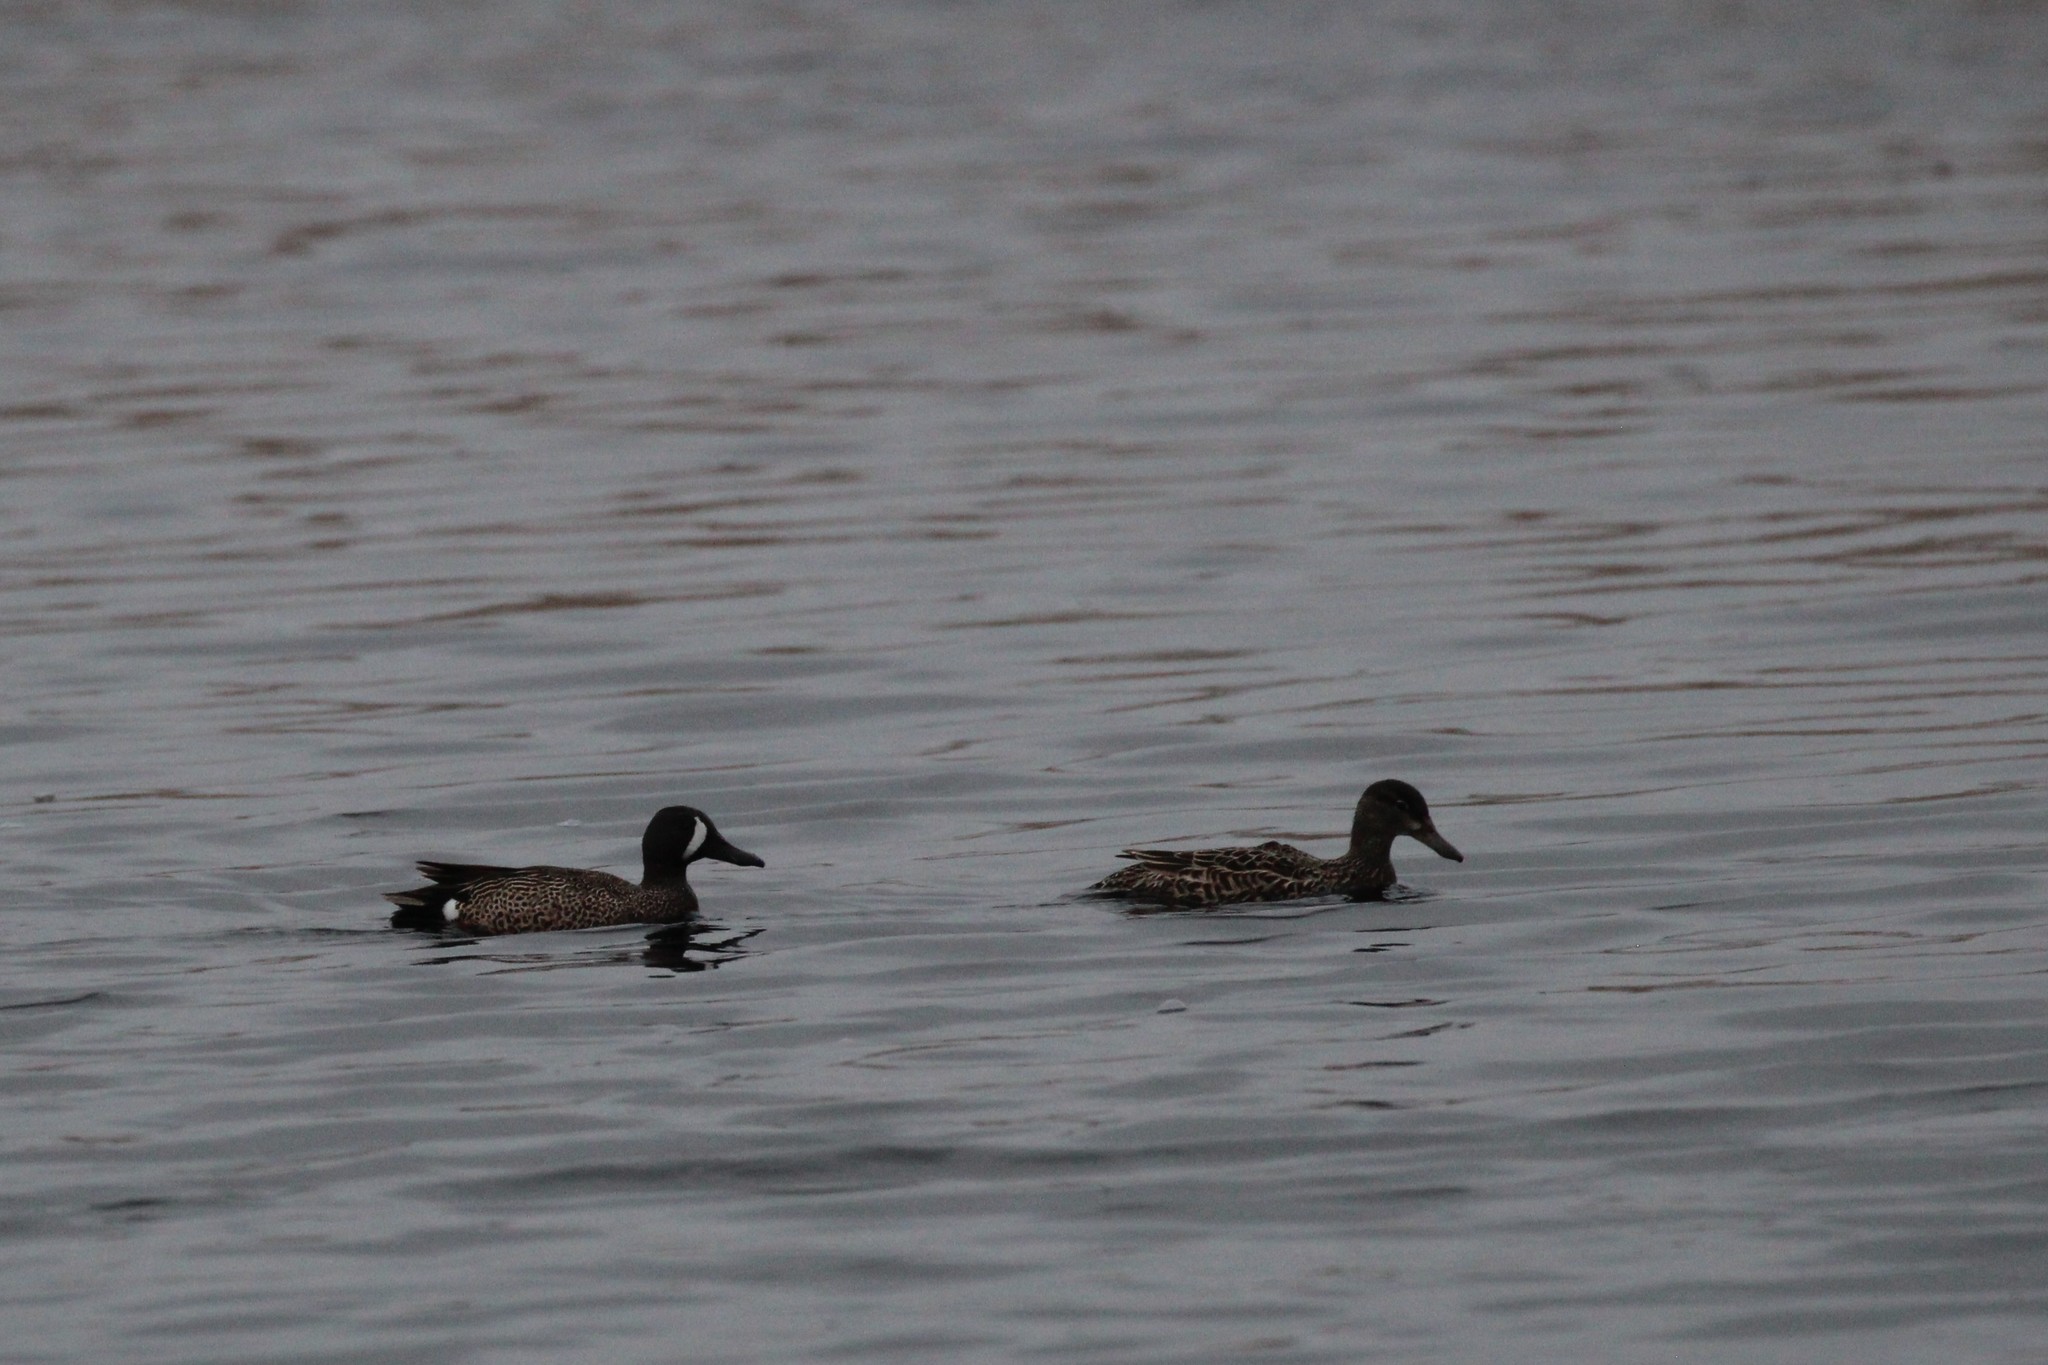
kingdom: Animalia
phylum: Chordata
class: Aves
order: Anseriformes
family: Anatidae
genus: Spatula
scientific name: Spatula discors
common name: Blue-winged teal
